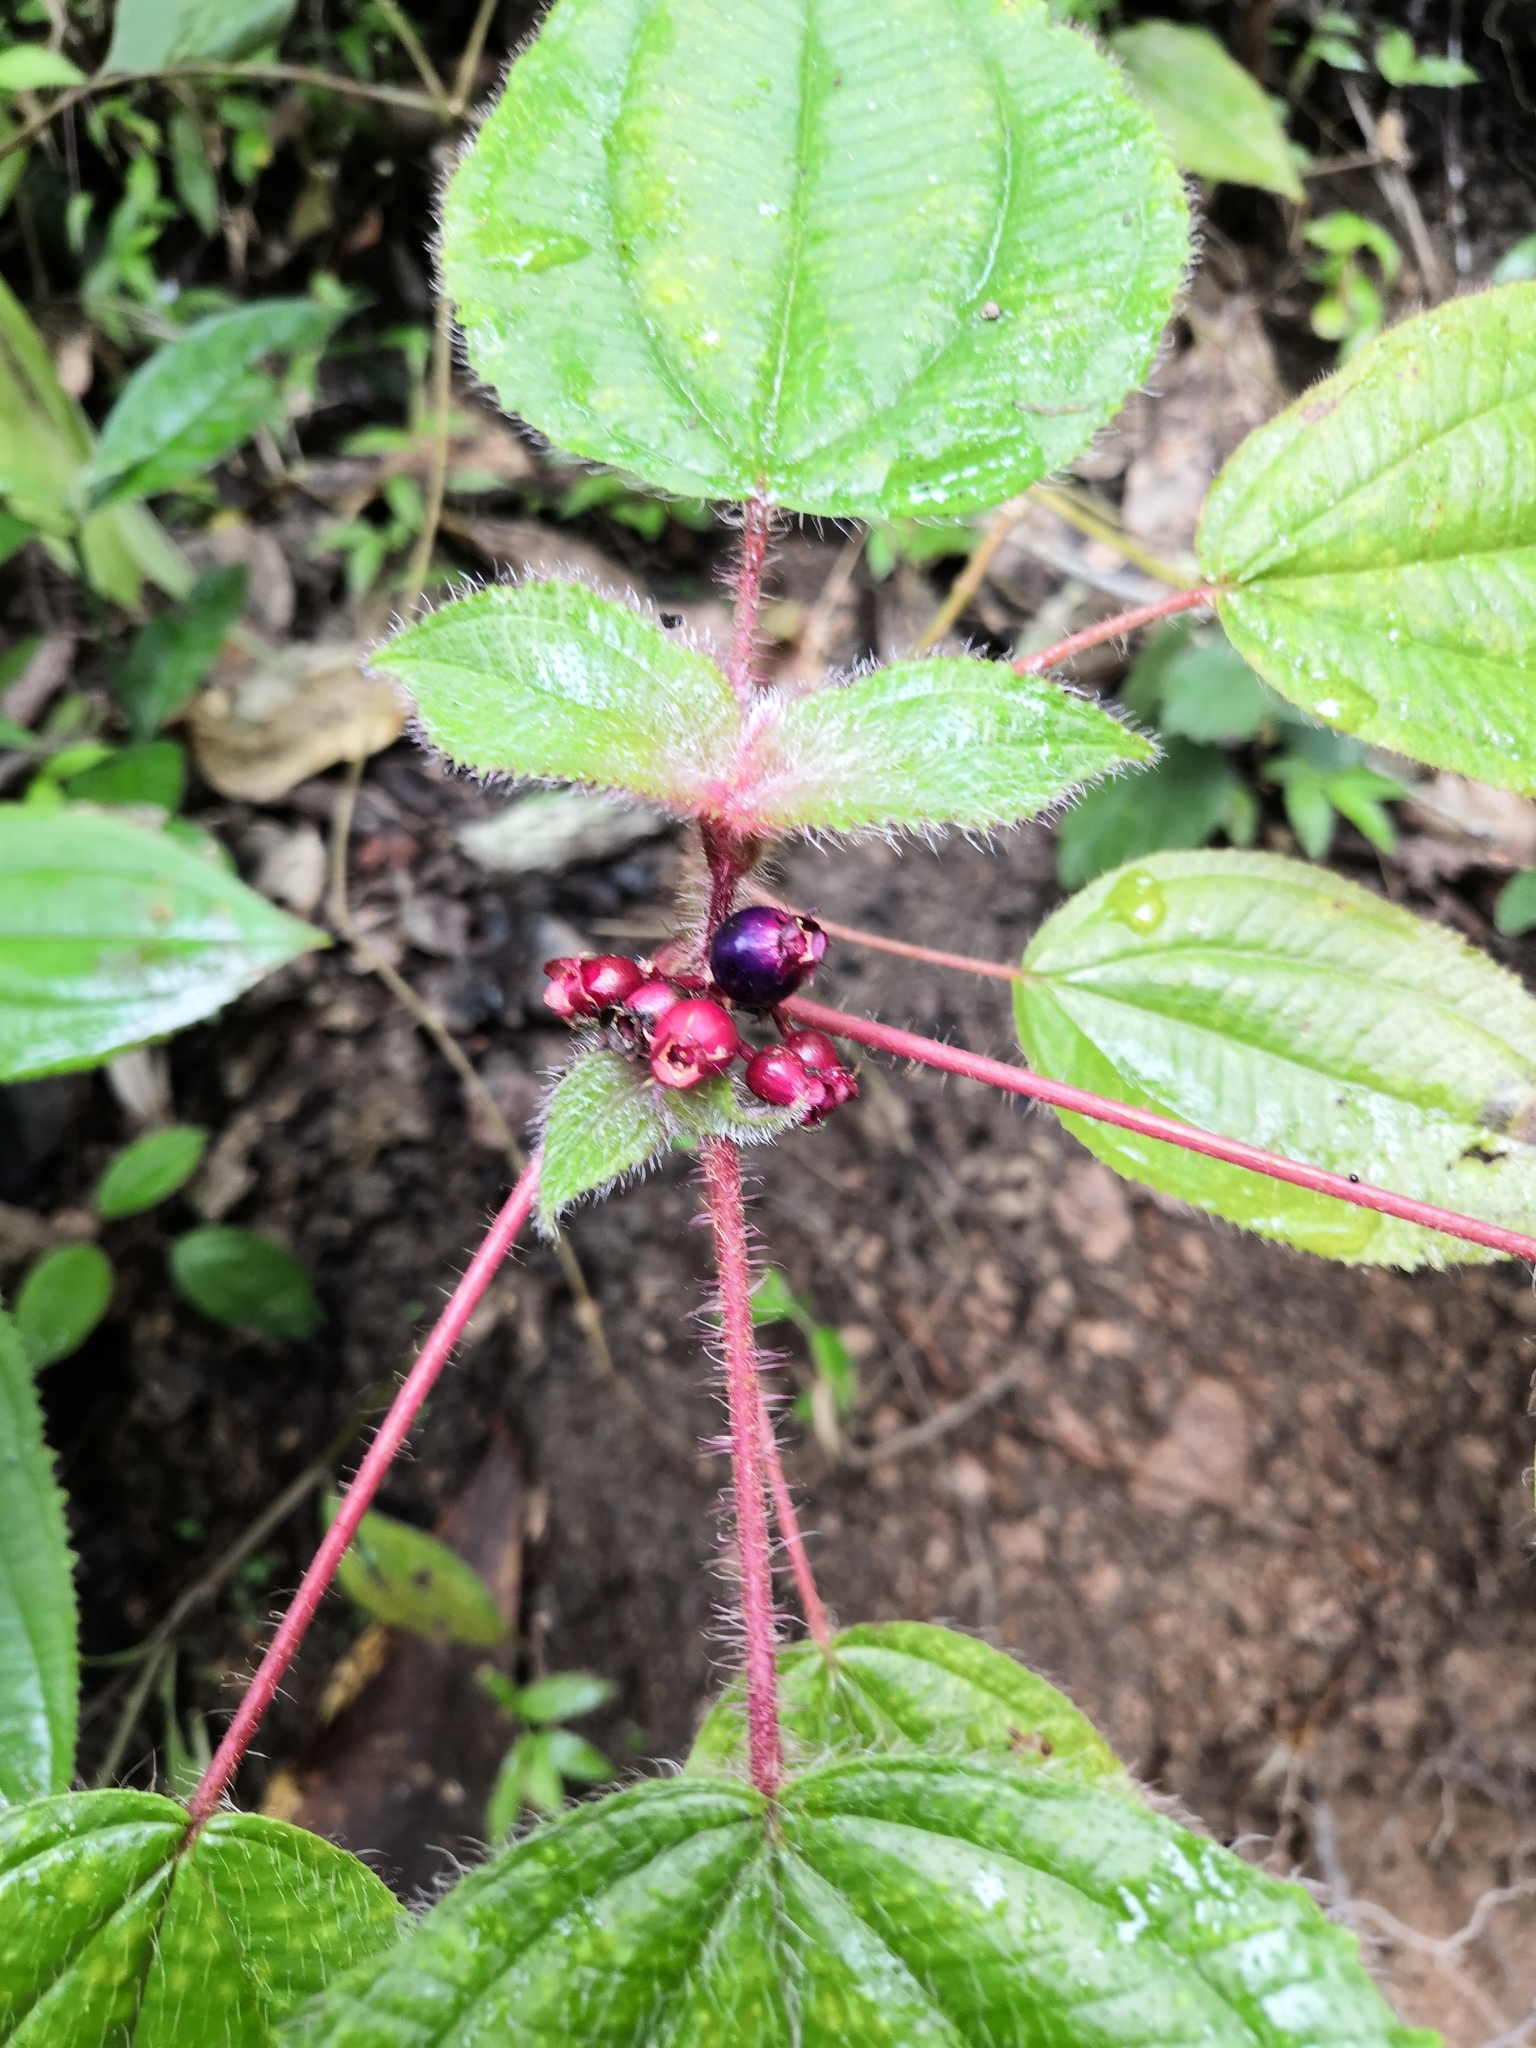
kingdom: Plantae
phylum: Tracheophyta
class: Magnoliopsida
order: Myrtales
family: Melastomataceae
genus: Miconia
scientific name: Miconia vallartensis
